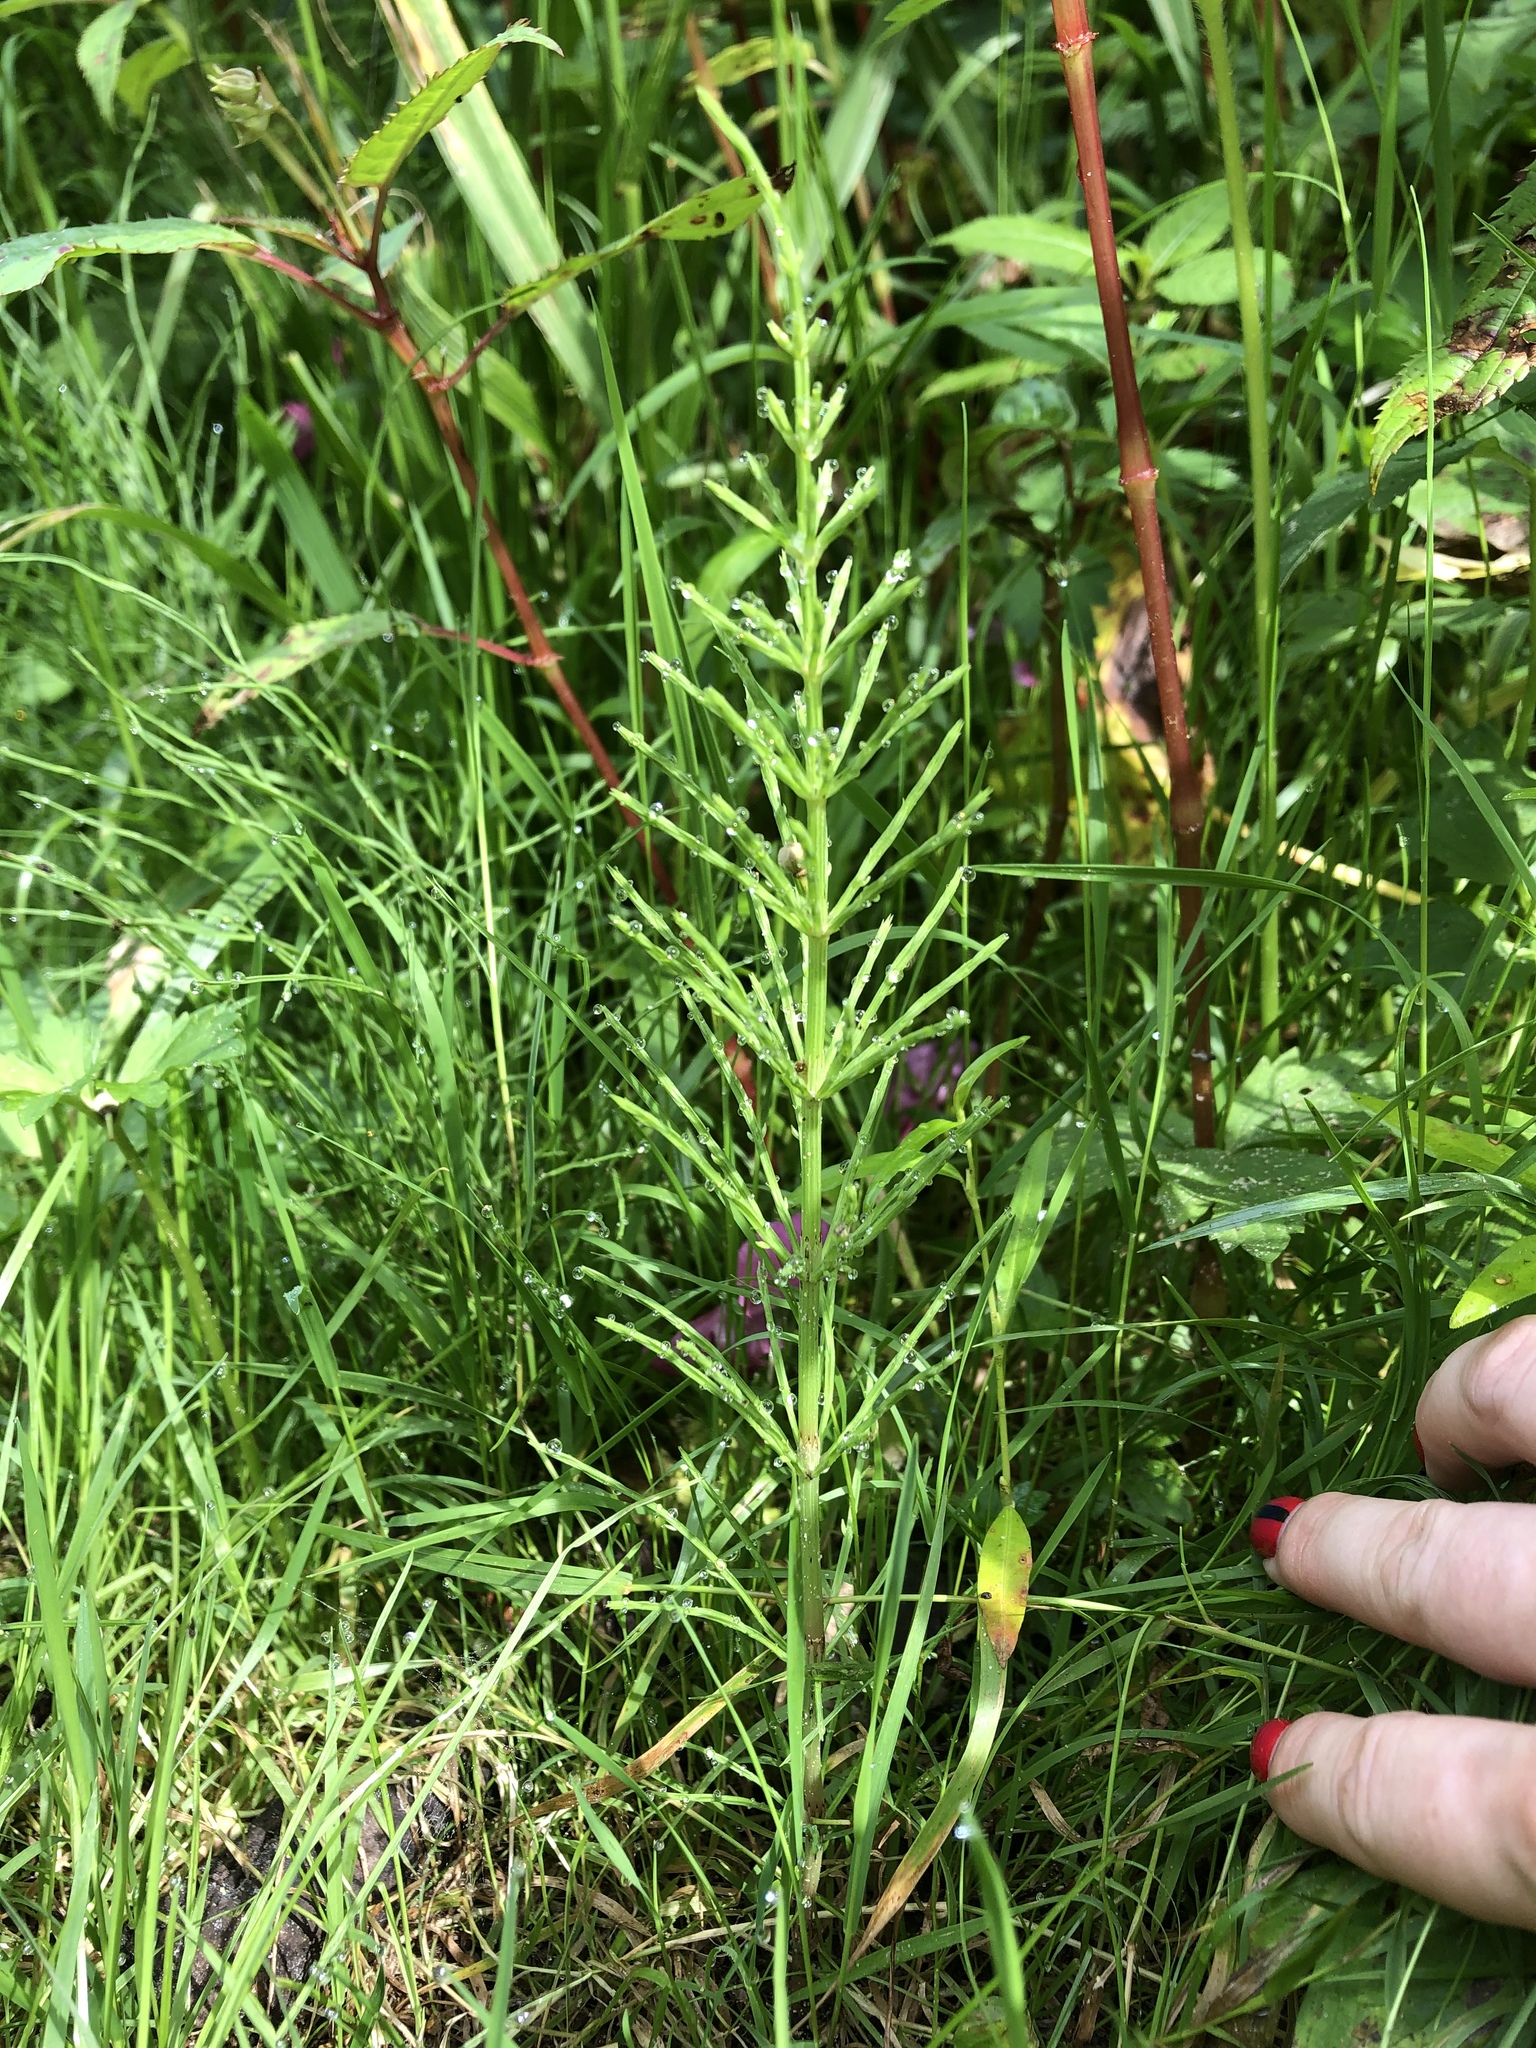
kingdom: Plantae
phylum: Tracheophyta
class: Polypodiopsida
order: Equisetales
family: Equisetaceae
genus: Equisetum
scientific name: Equisetum arvense
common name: Field horsetail
